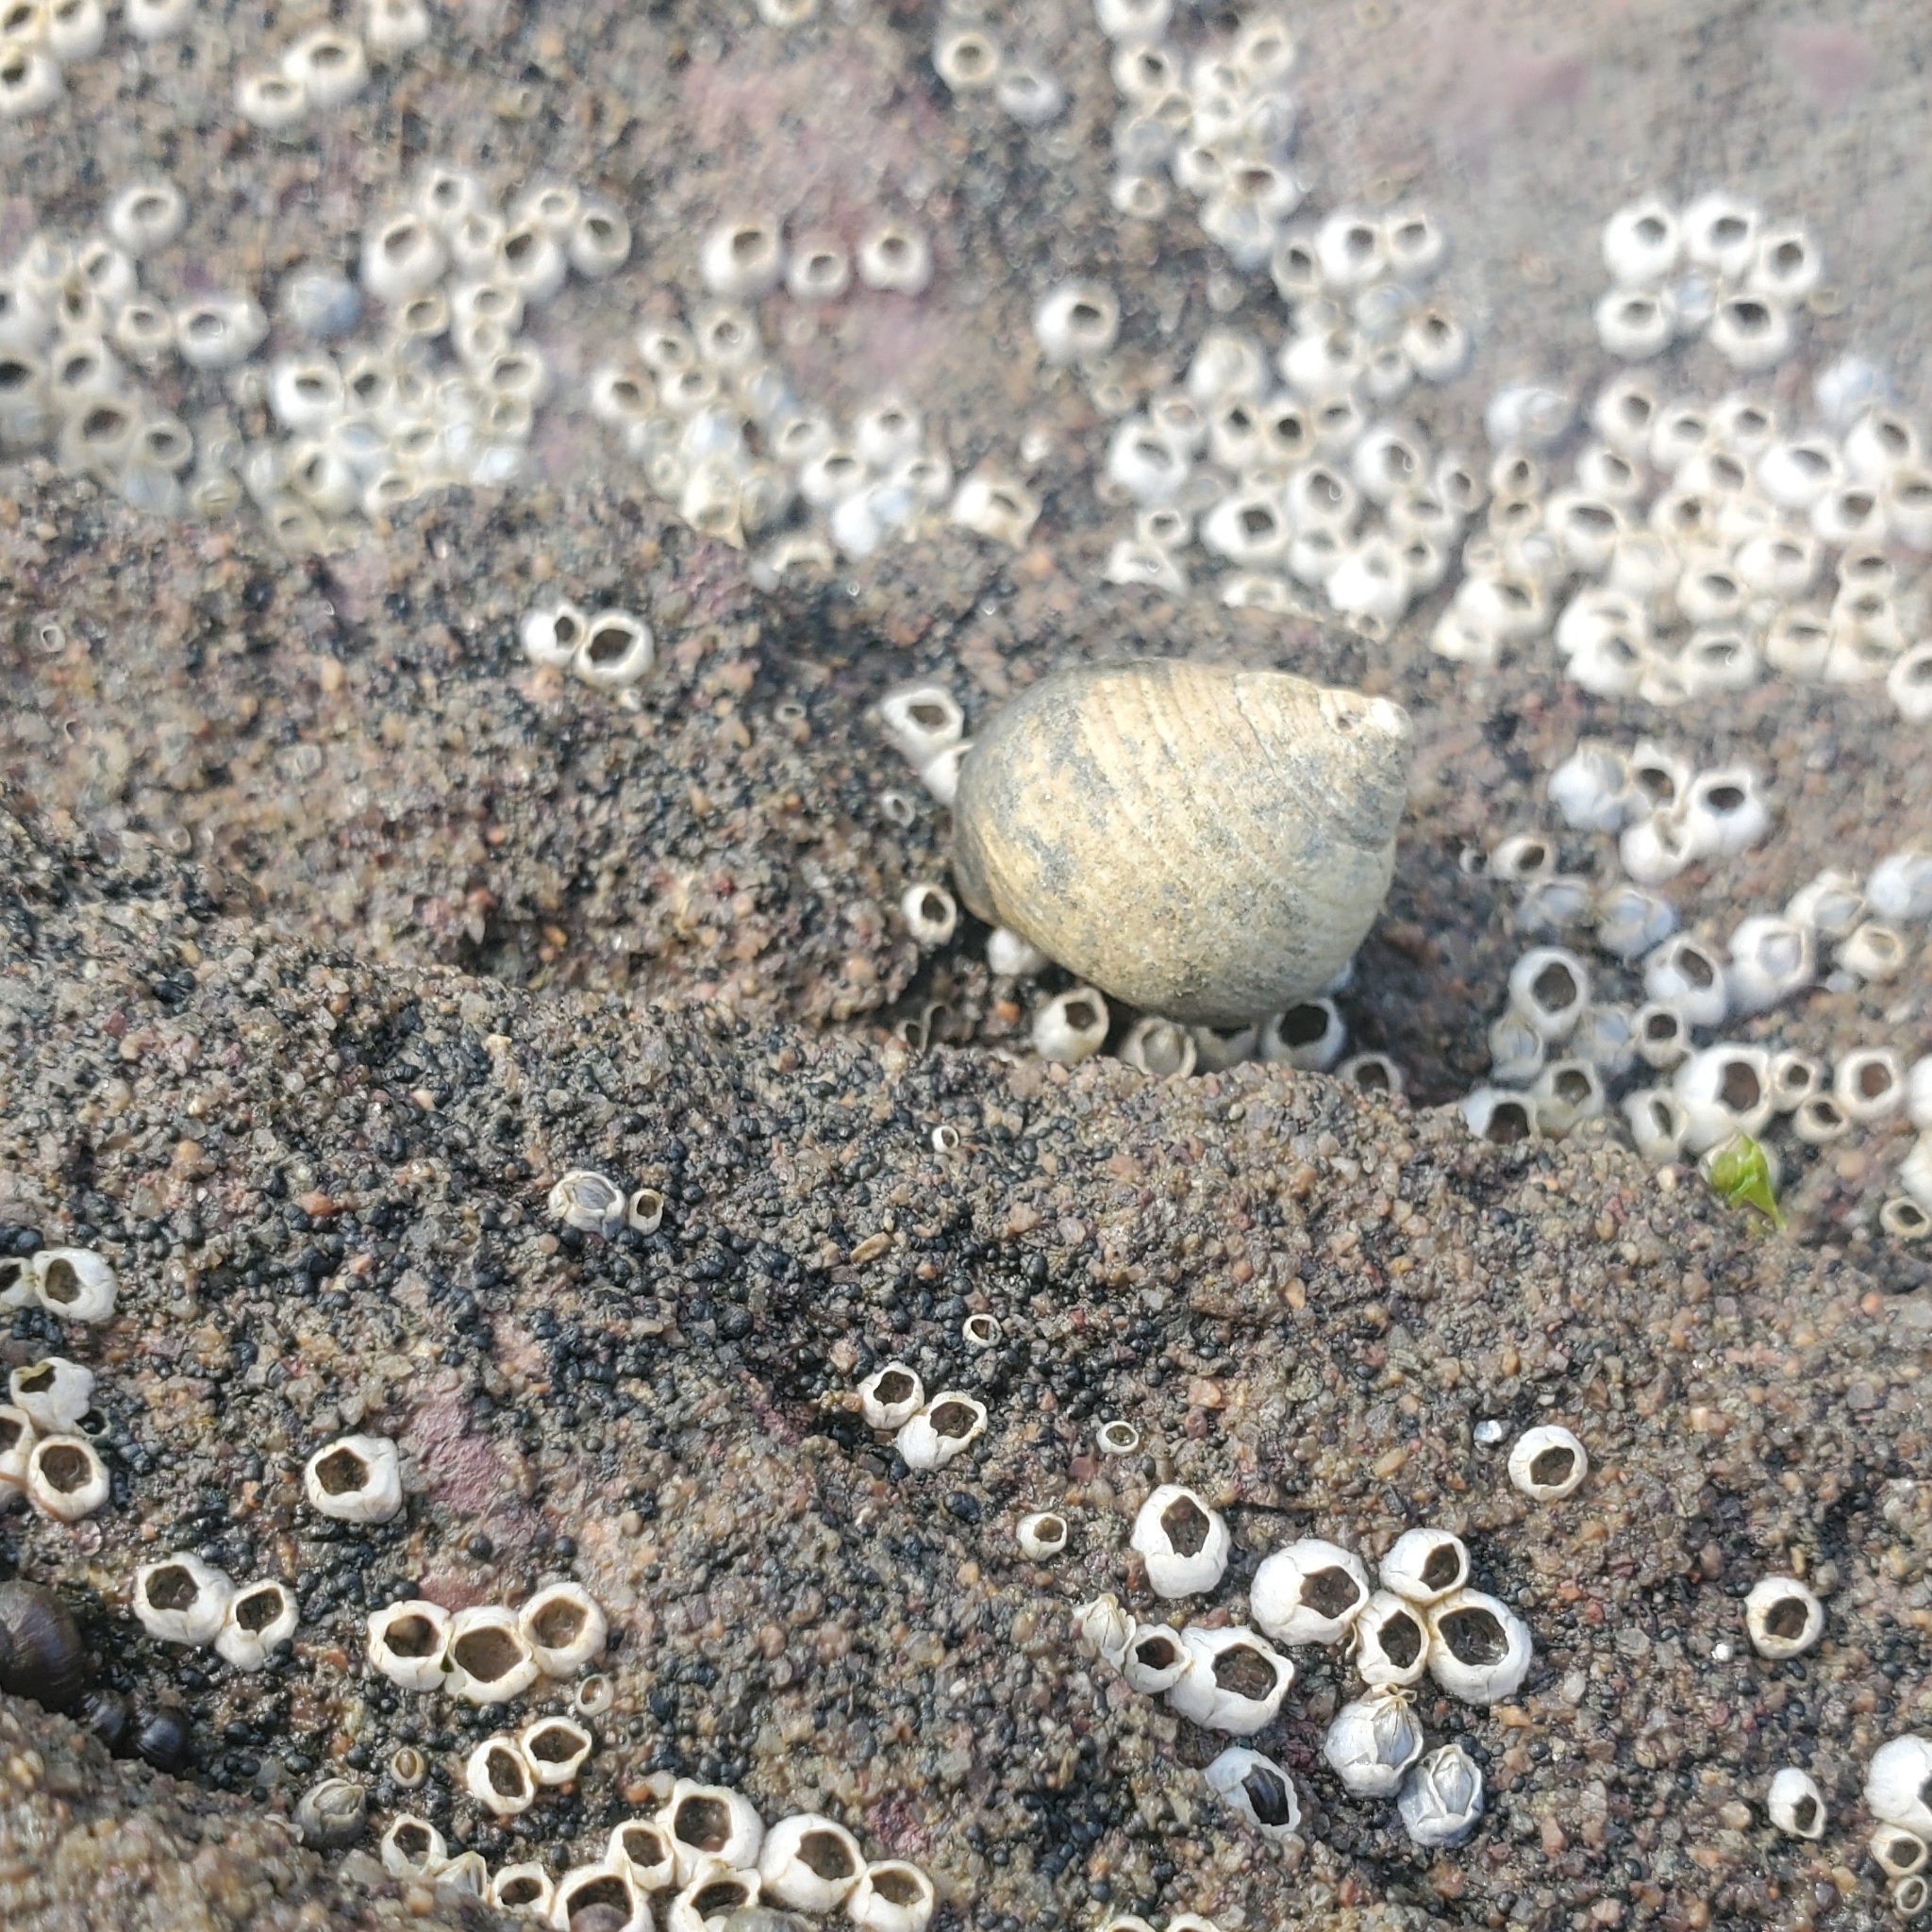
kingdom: Animalia
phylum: Mollusca
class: Gastropoda
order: Littorinimorpha
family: Littorinidae
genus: Littorina
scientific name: Littorina littorea
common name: Common periwinkle
